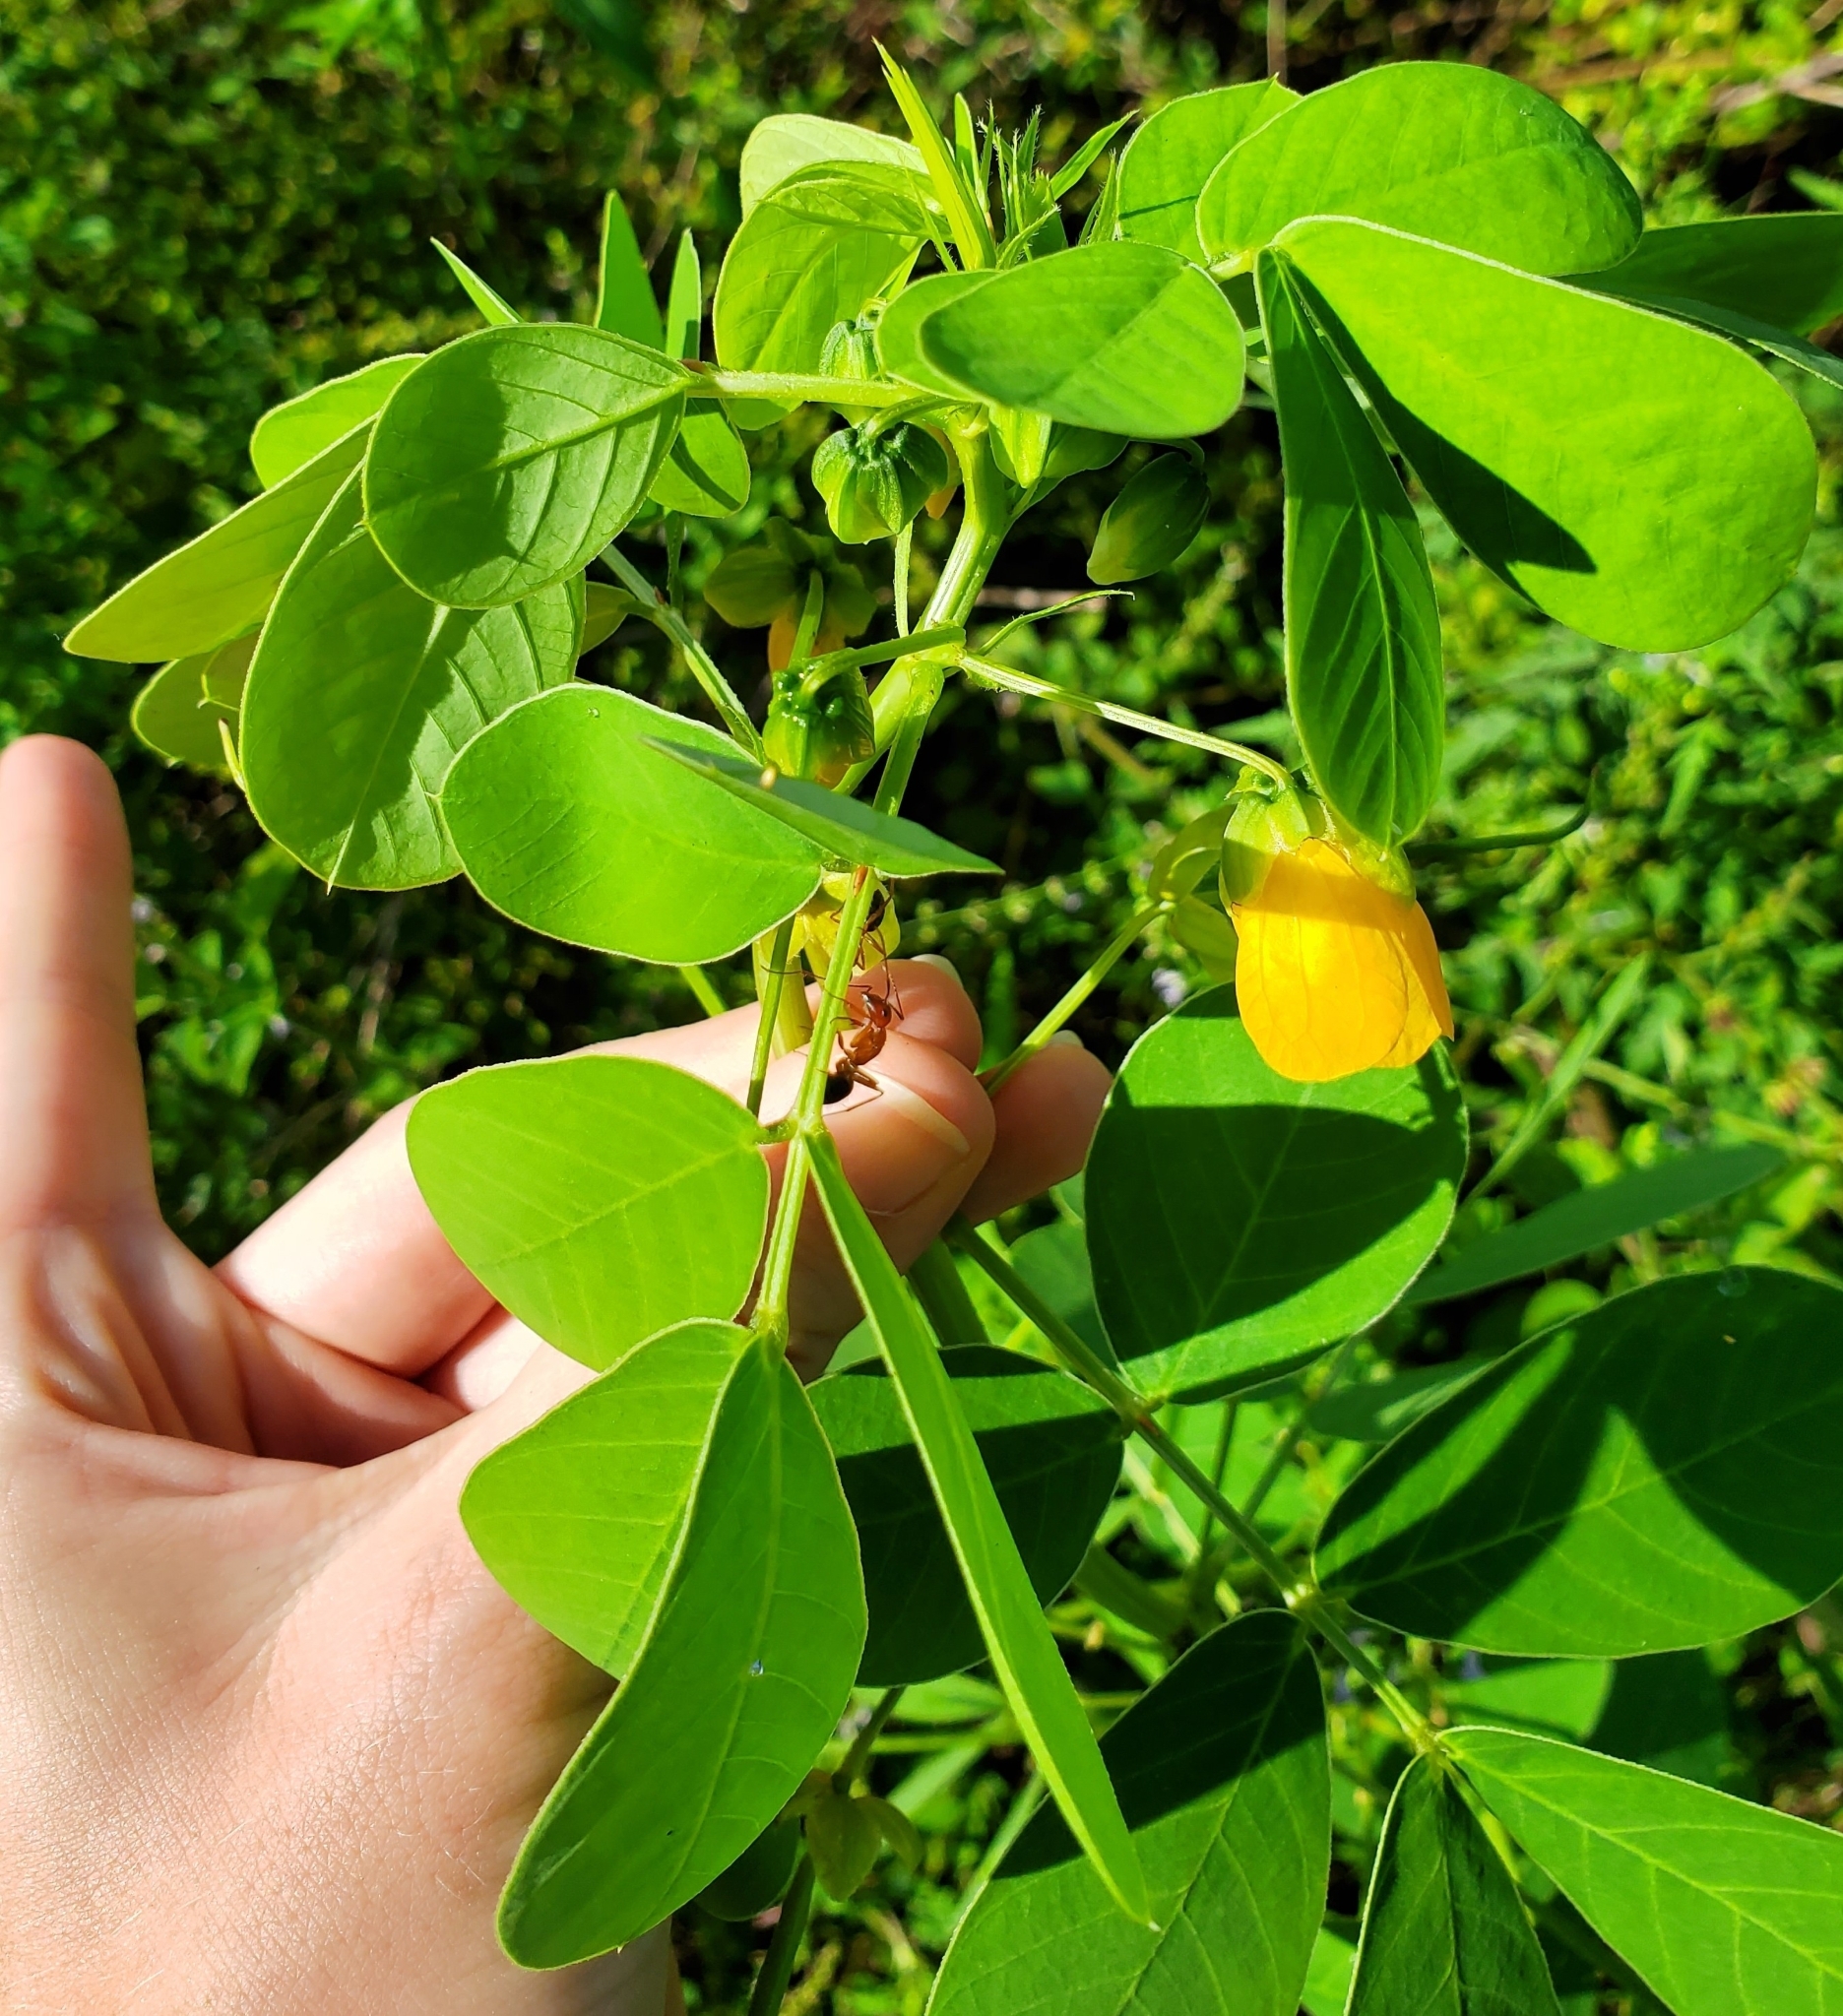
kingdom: Plantae
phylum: Tracheophyta
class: Magnoliopsida
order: Fabales
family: Fabaceae
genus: Senna
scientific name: Senna obtusifolia
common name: Java-bean
